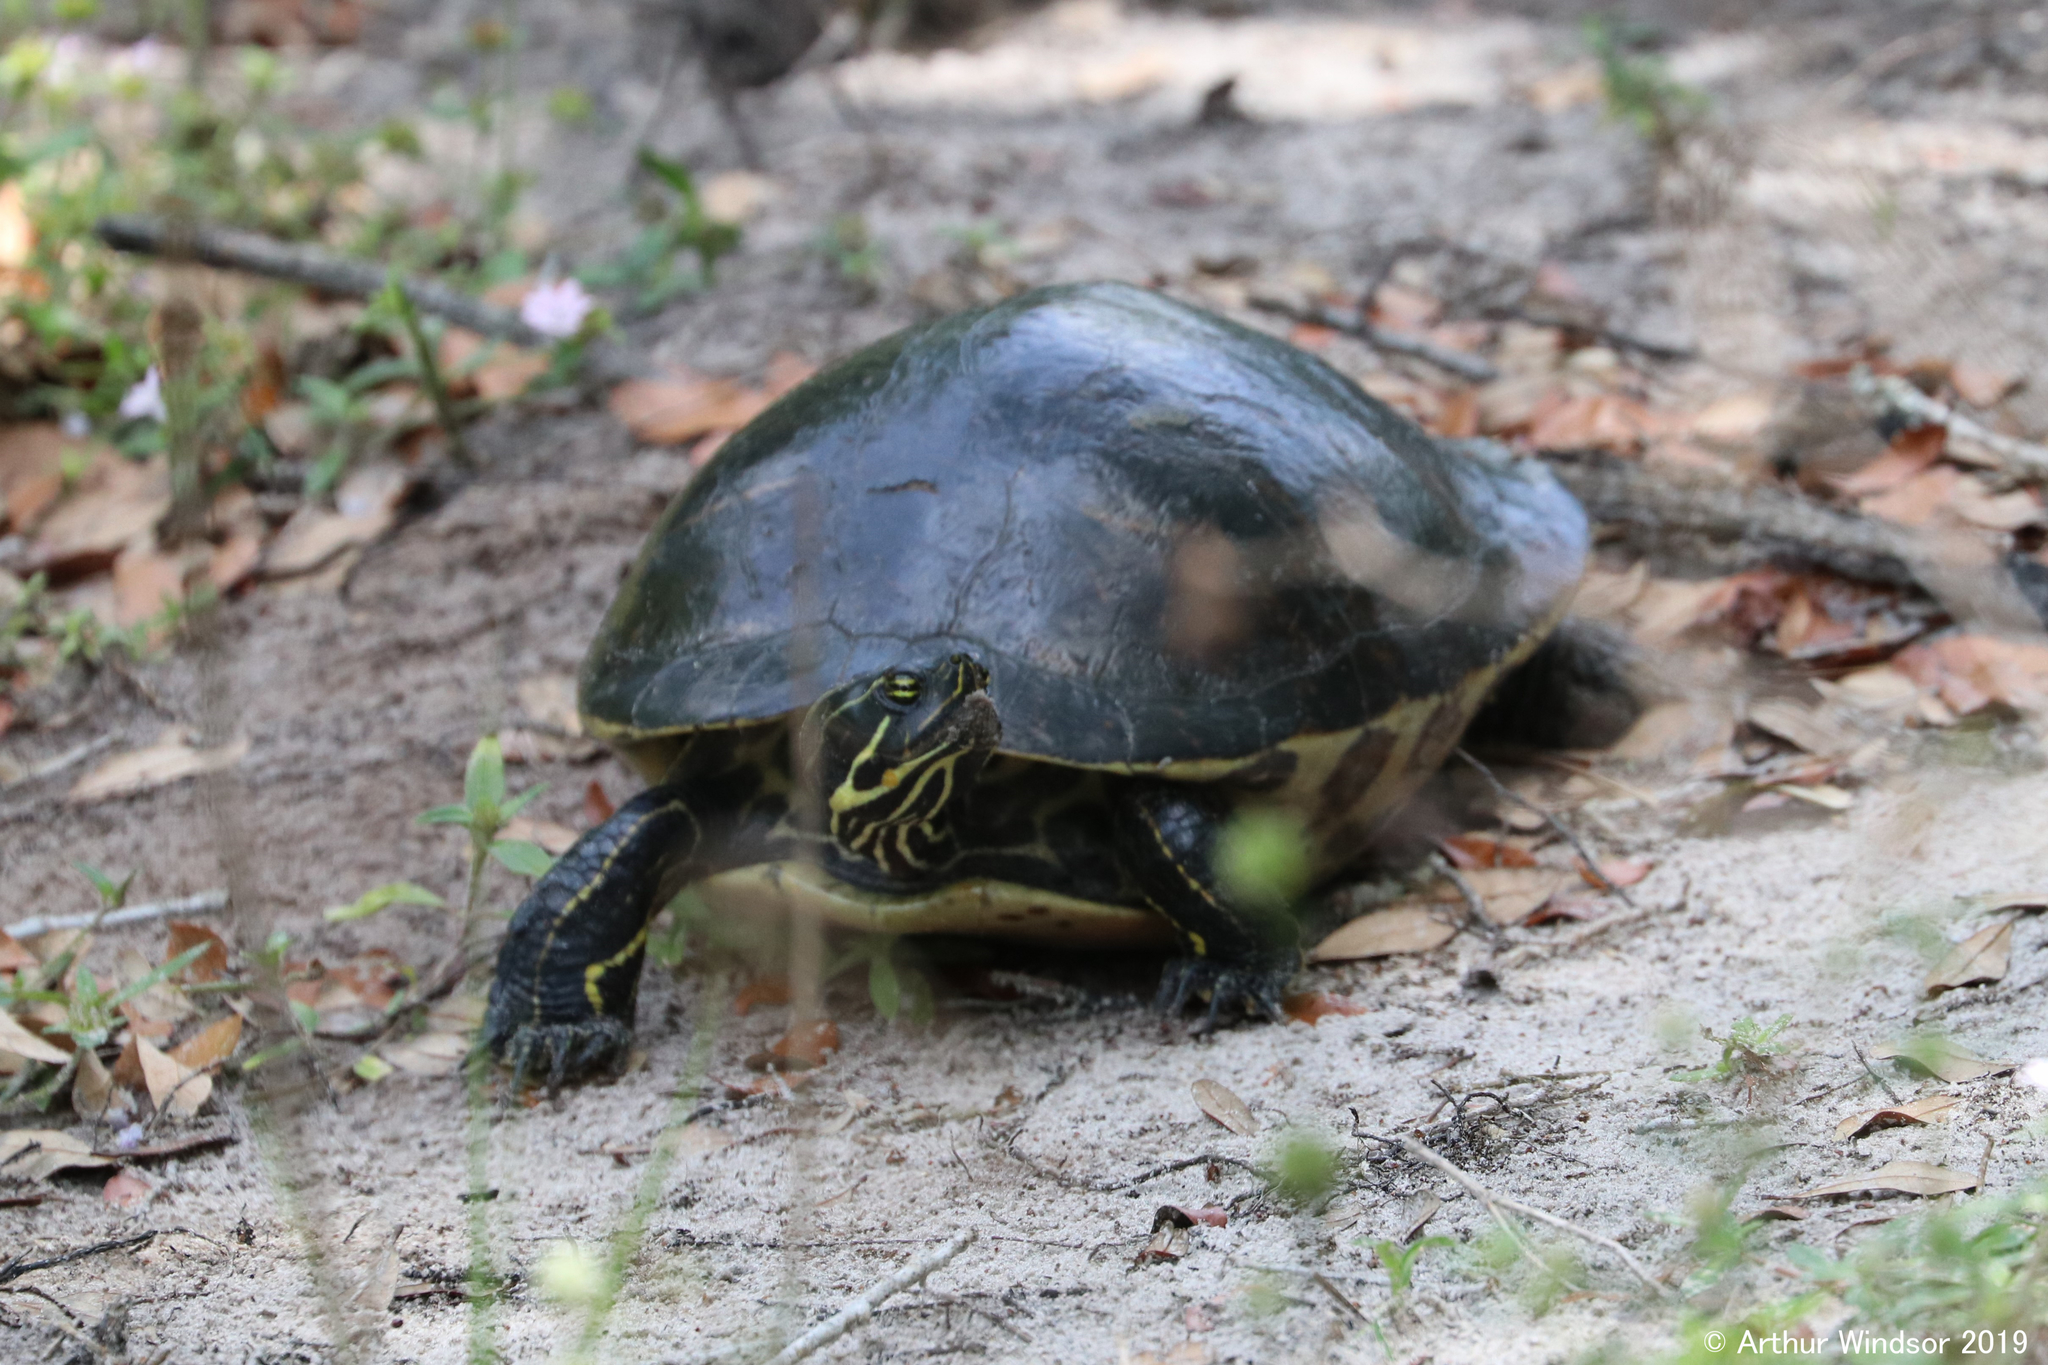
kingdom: Animalia
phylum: Chordata
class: Testudines
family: Emydidae
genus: Pseudemys
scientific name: Pseudemys peninsularis
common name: Peninsula cooter
